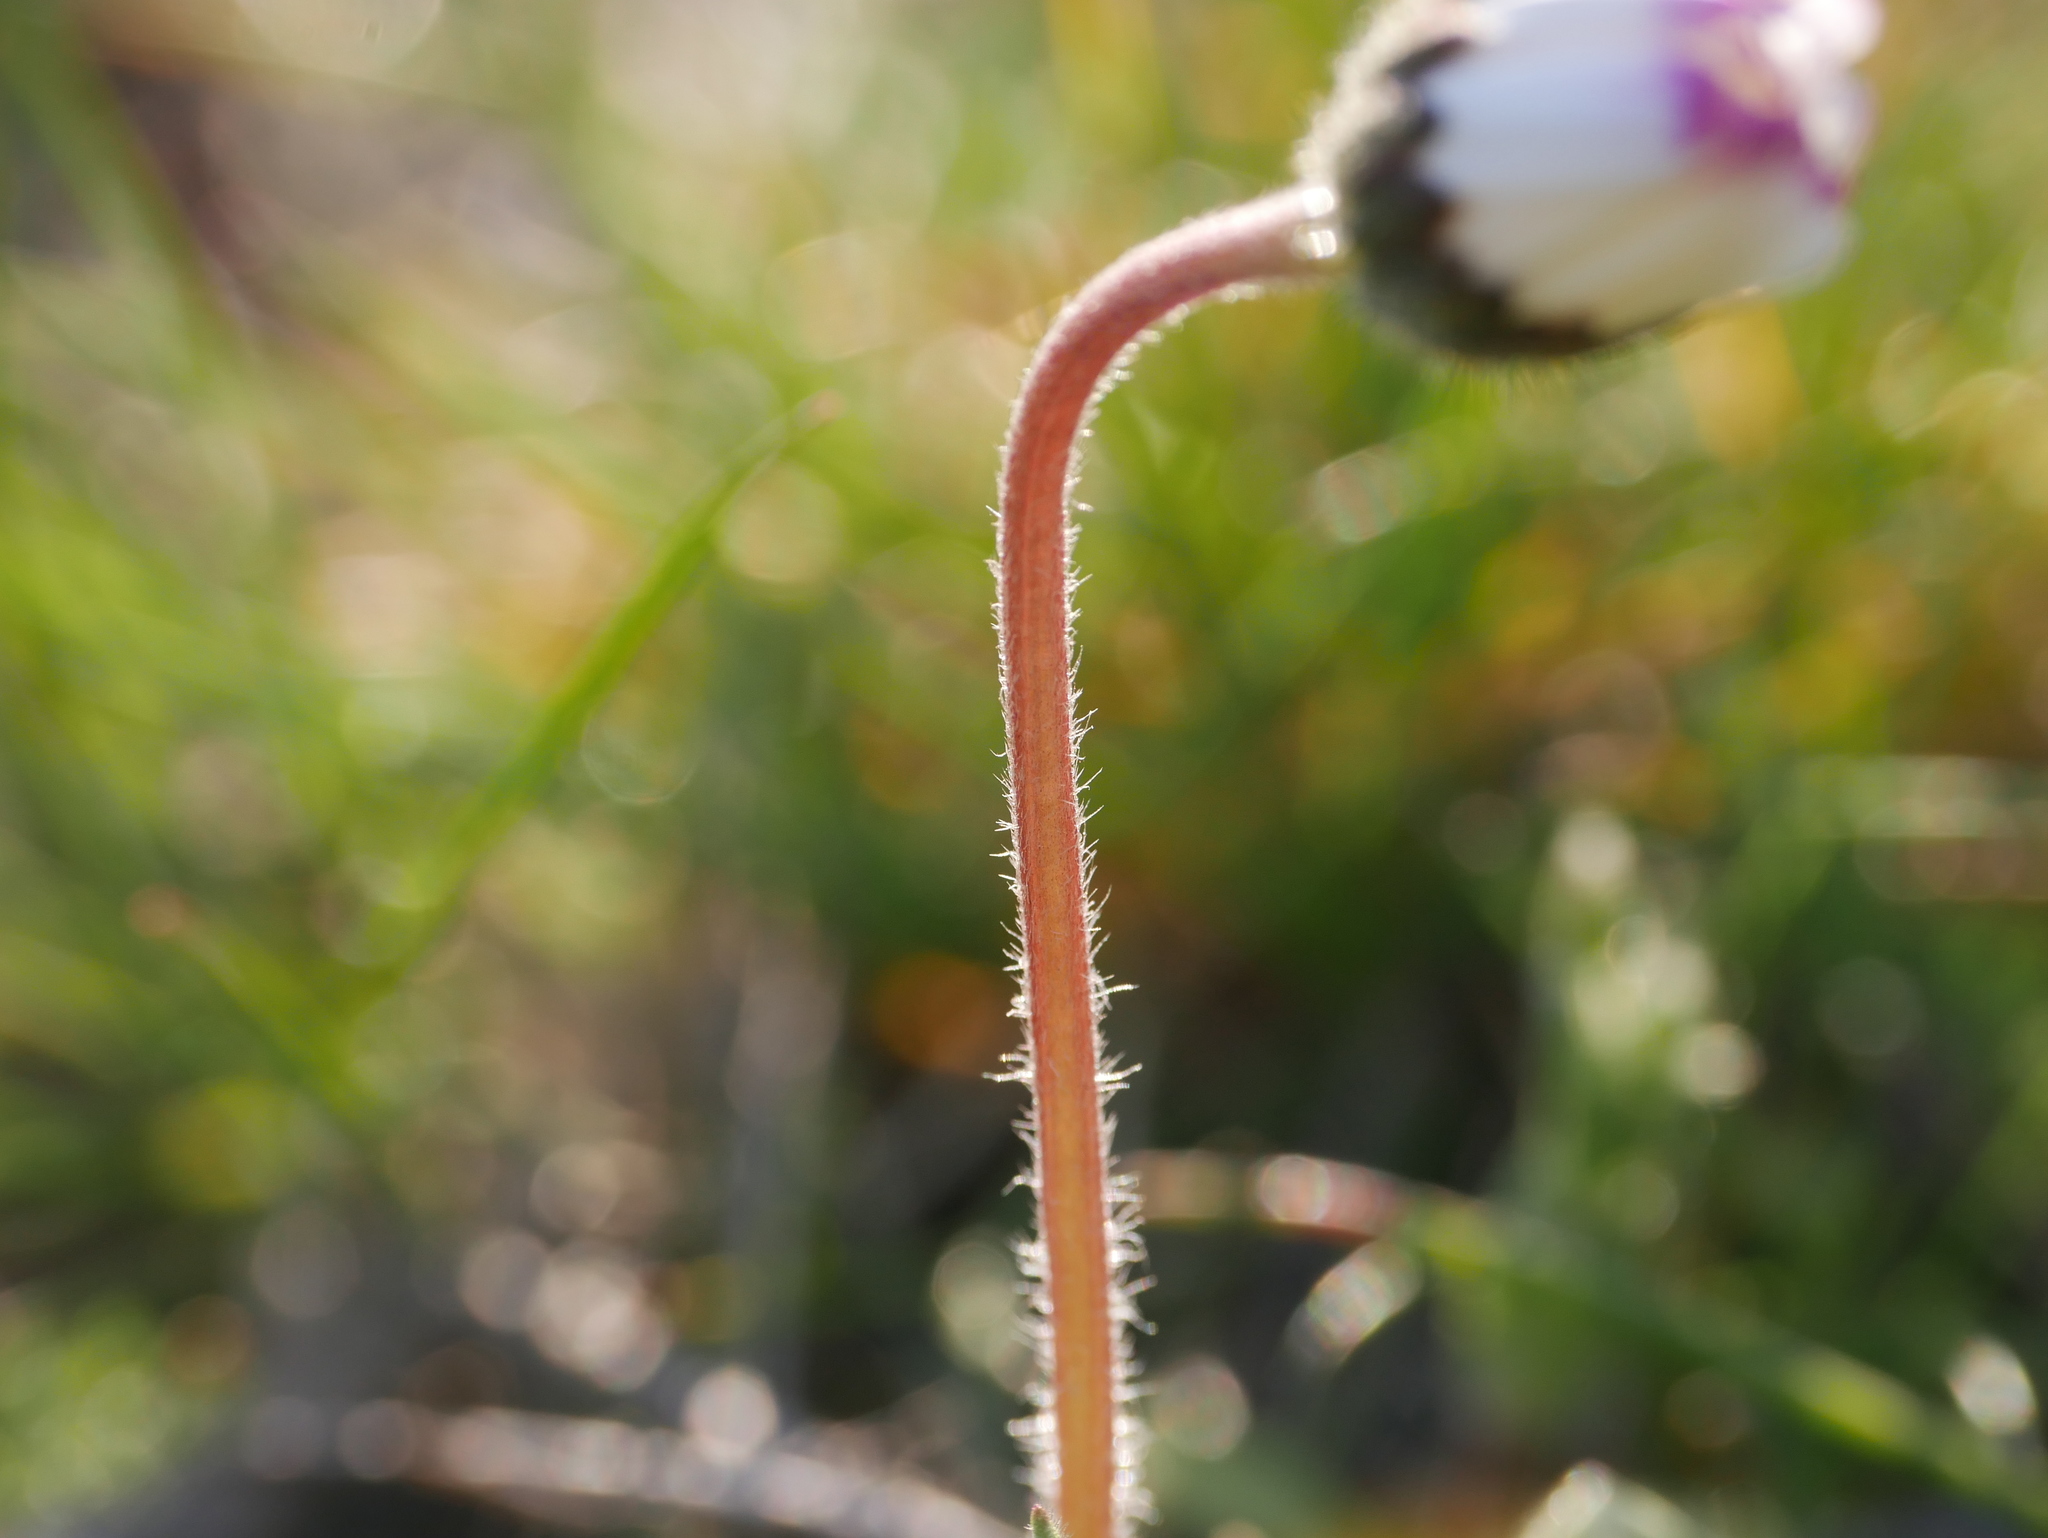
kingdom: Plantae
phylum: Tracheophyta
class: Magnoliopsida
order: Asterales
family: Asteraceae
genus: Bellis
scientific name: Bellis perennis
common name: Lawndaisy
